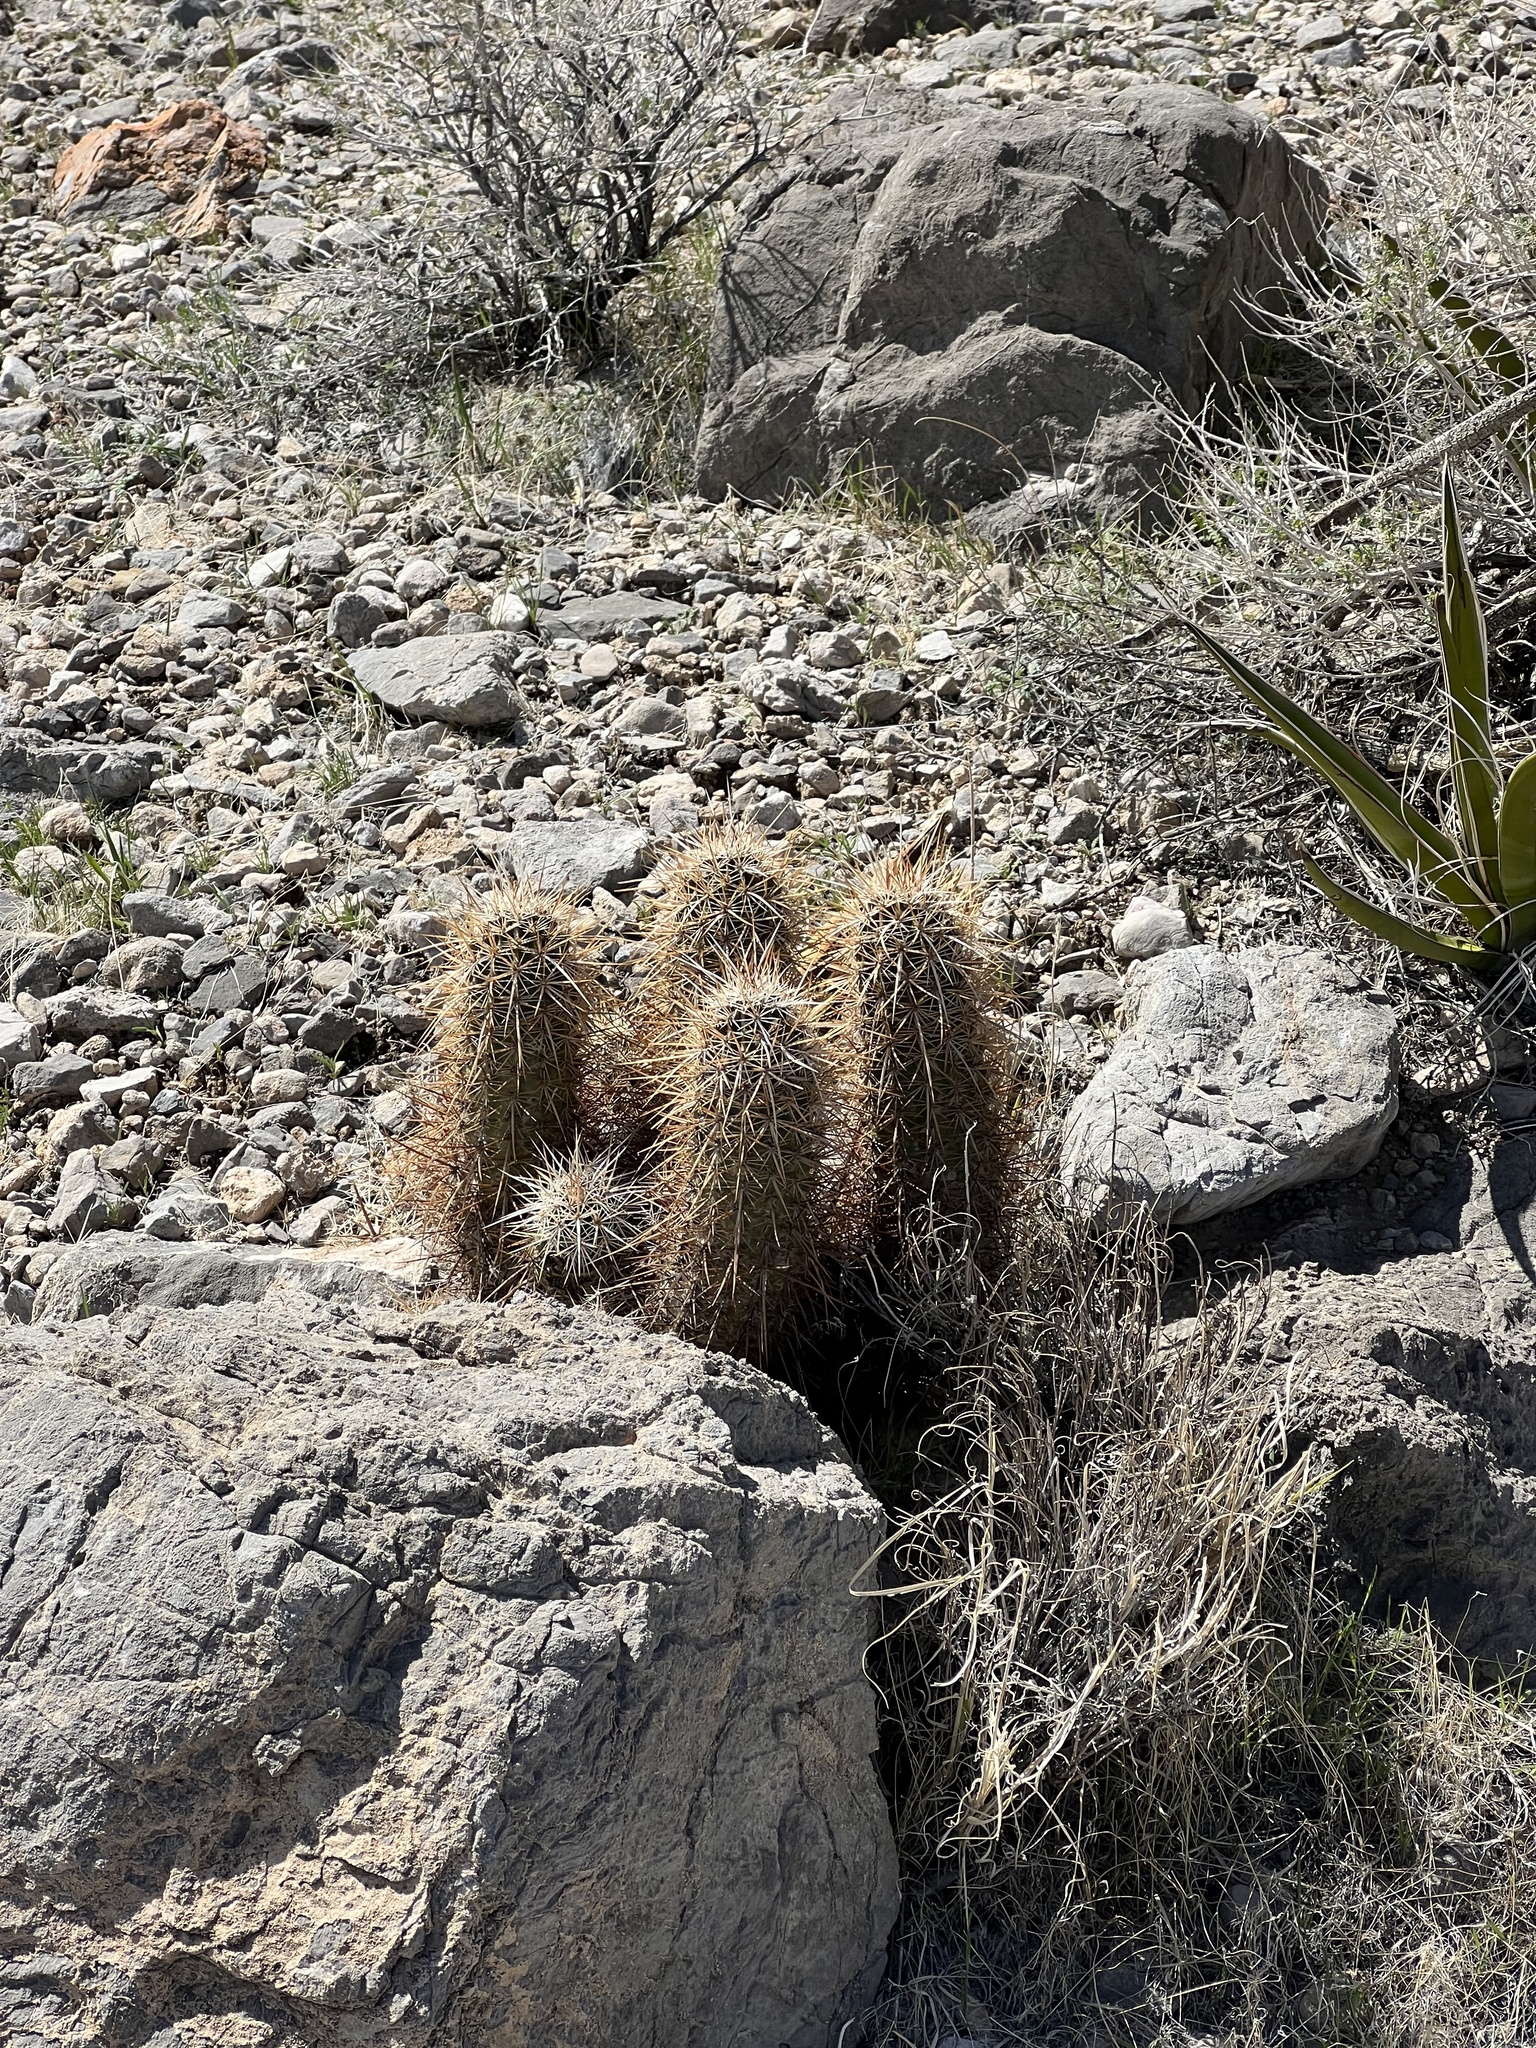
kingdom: Plantae
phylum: Tracheophyta
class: Magnoliopsida
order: Caryophyllales
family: Cactaceae
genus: Echinocereus
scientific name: Echinocereus engelmannii
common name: Engelmann's hedgehog cactus
